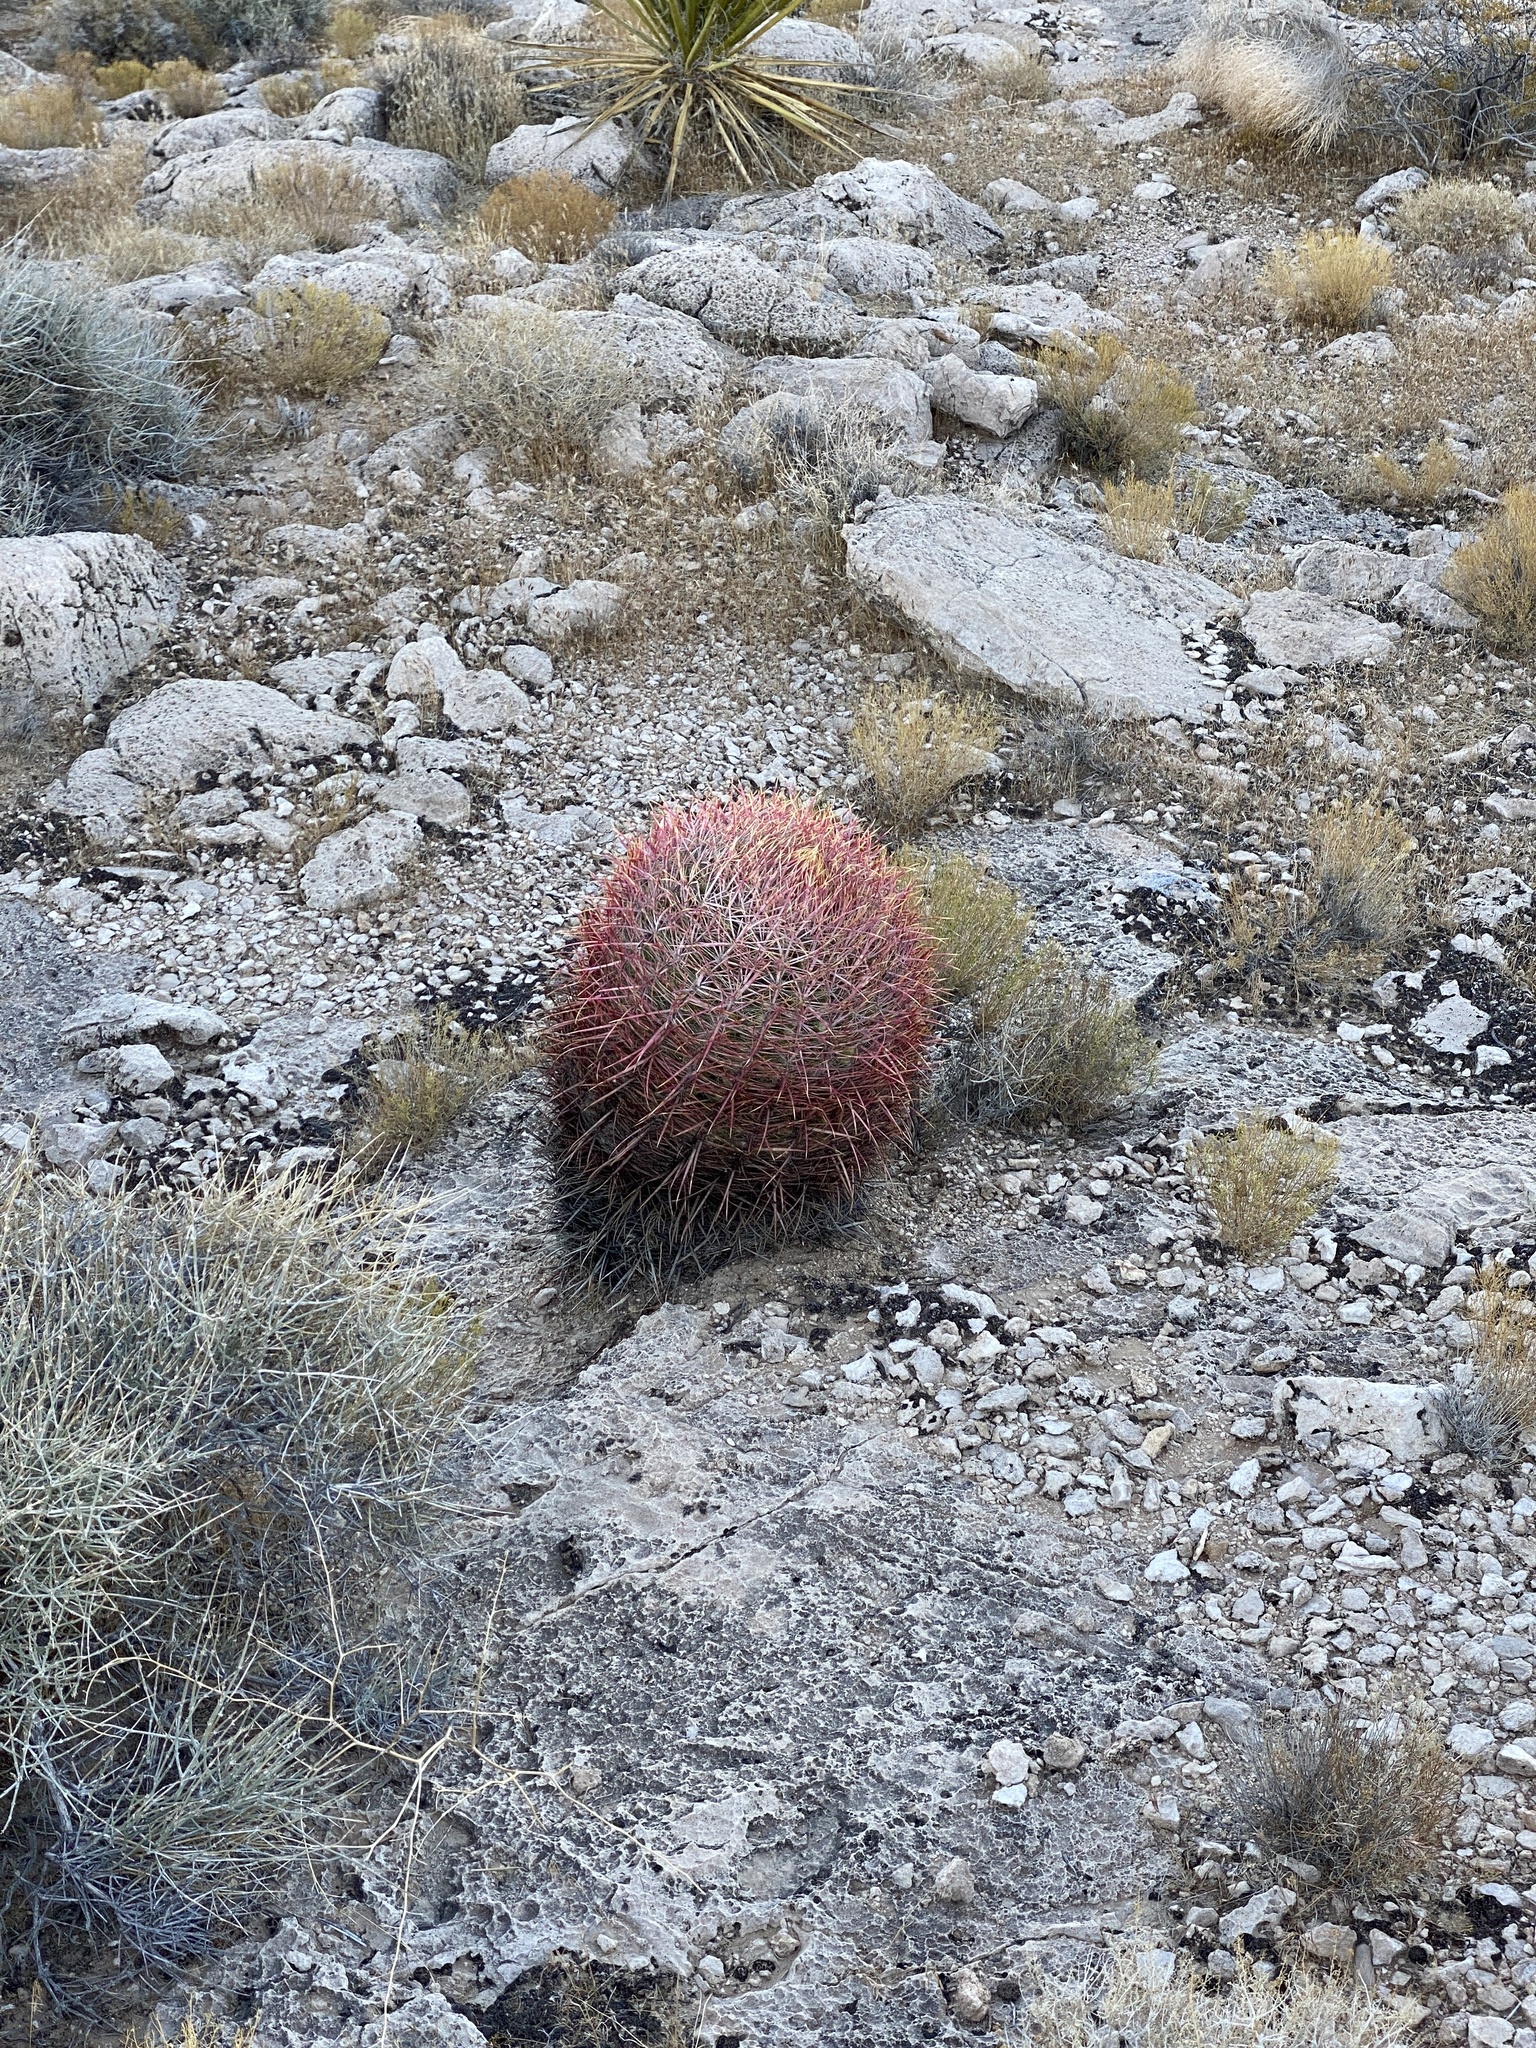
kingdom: Plantae
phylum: Tracheophyta
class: Magnoliopsida
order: Caryophyllales
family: Cactaceae
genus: Ferocactus
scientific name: Ferocactus cylindraceus
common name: California barrel cactus
